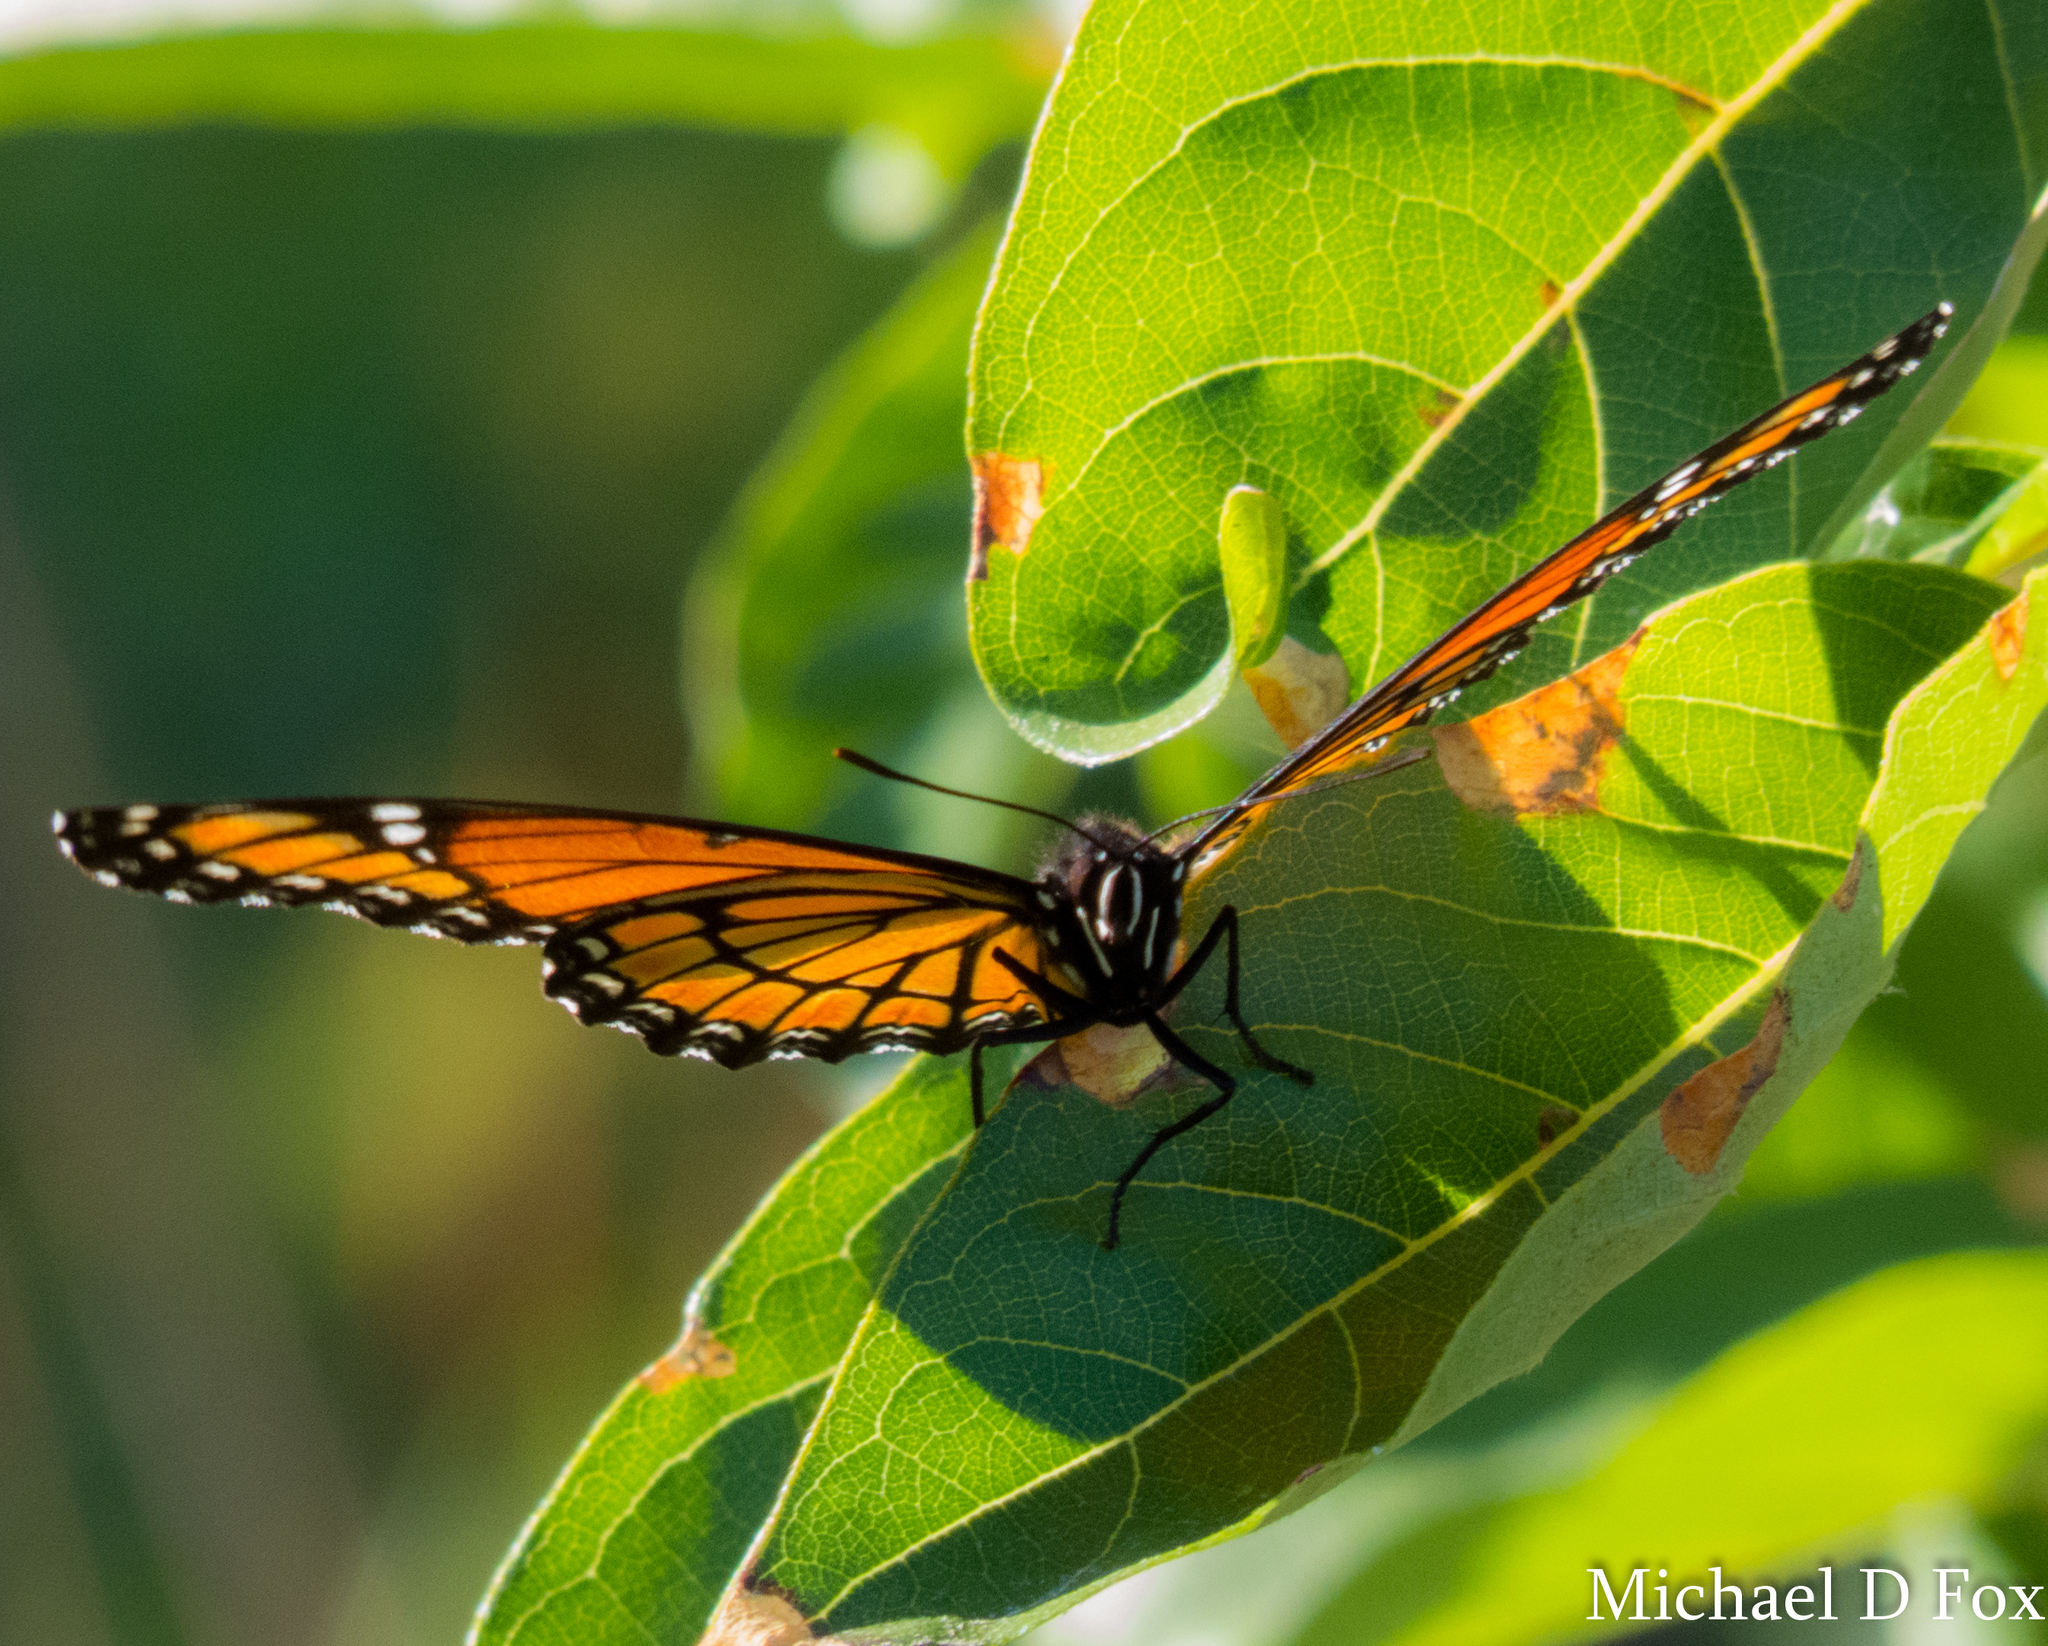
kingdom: Animalia
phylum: Arthropoda
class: Insecta
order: Lepidoptera
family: Nymphalidae
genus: Limenitis
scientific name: Limenitis archippus
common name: Viceroy
